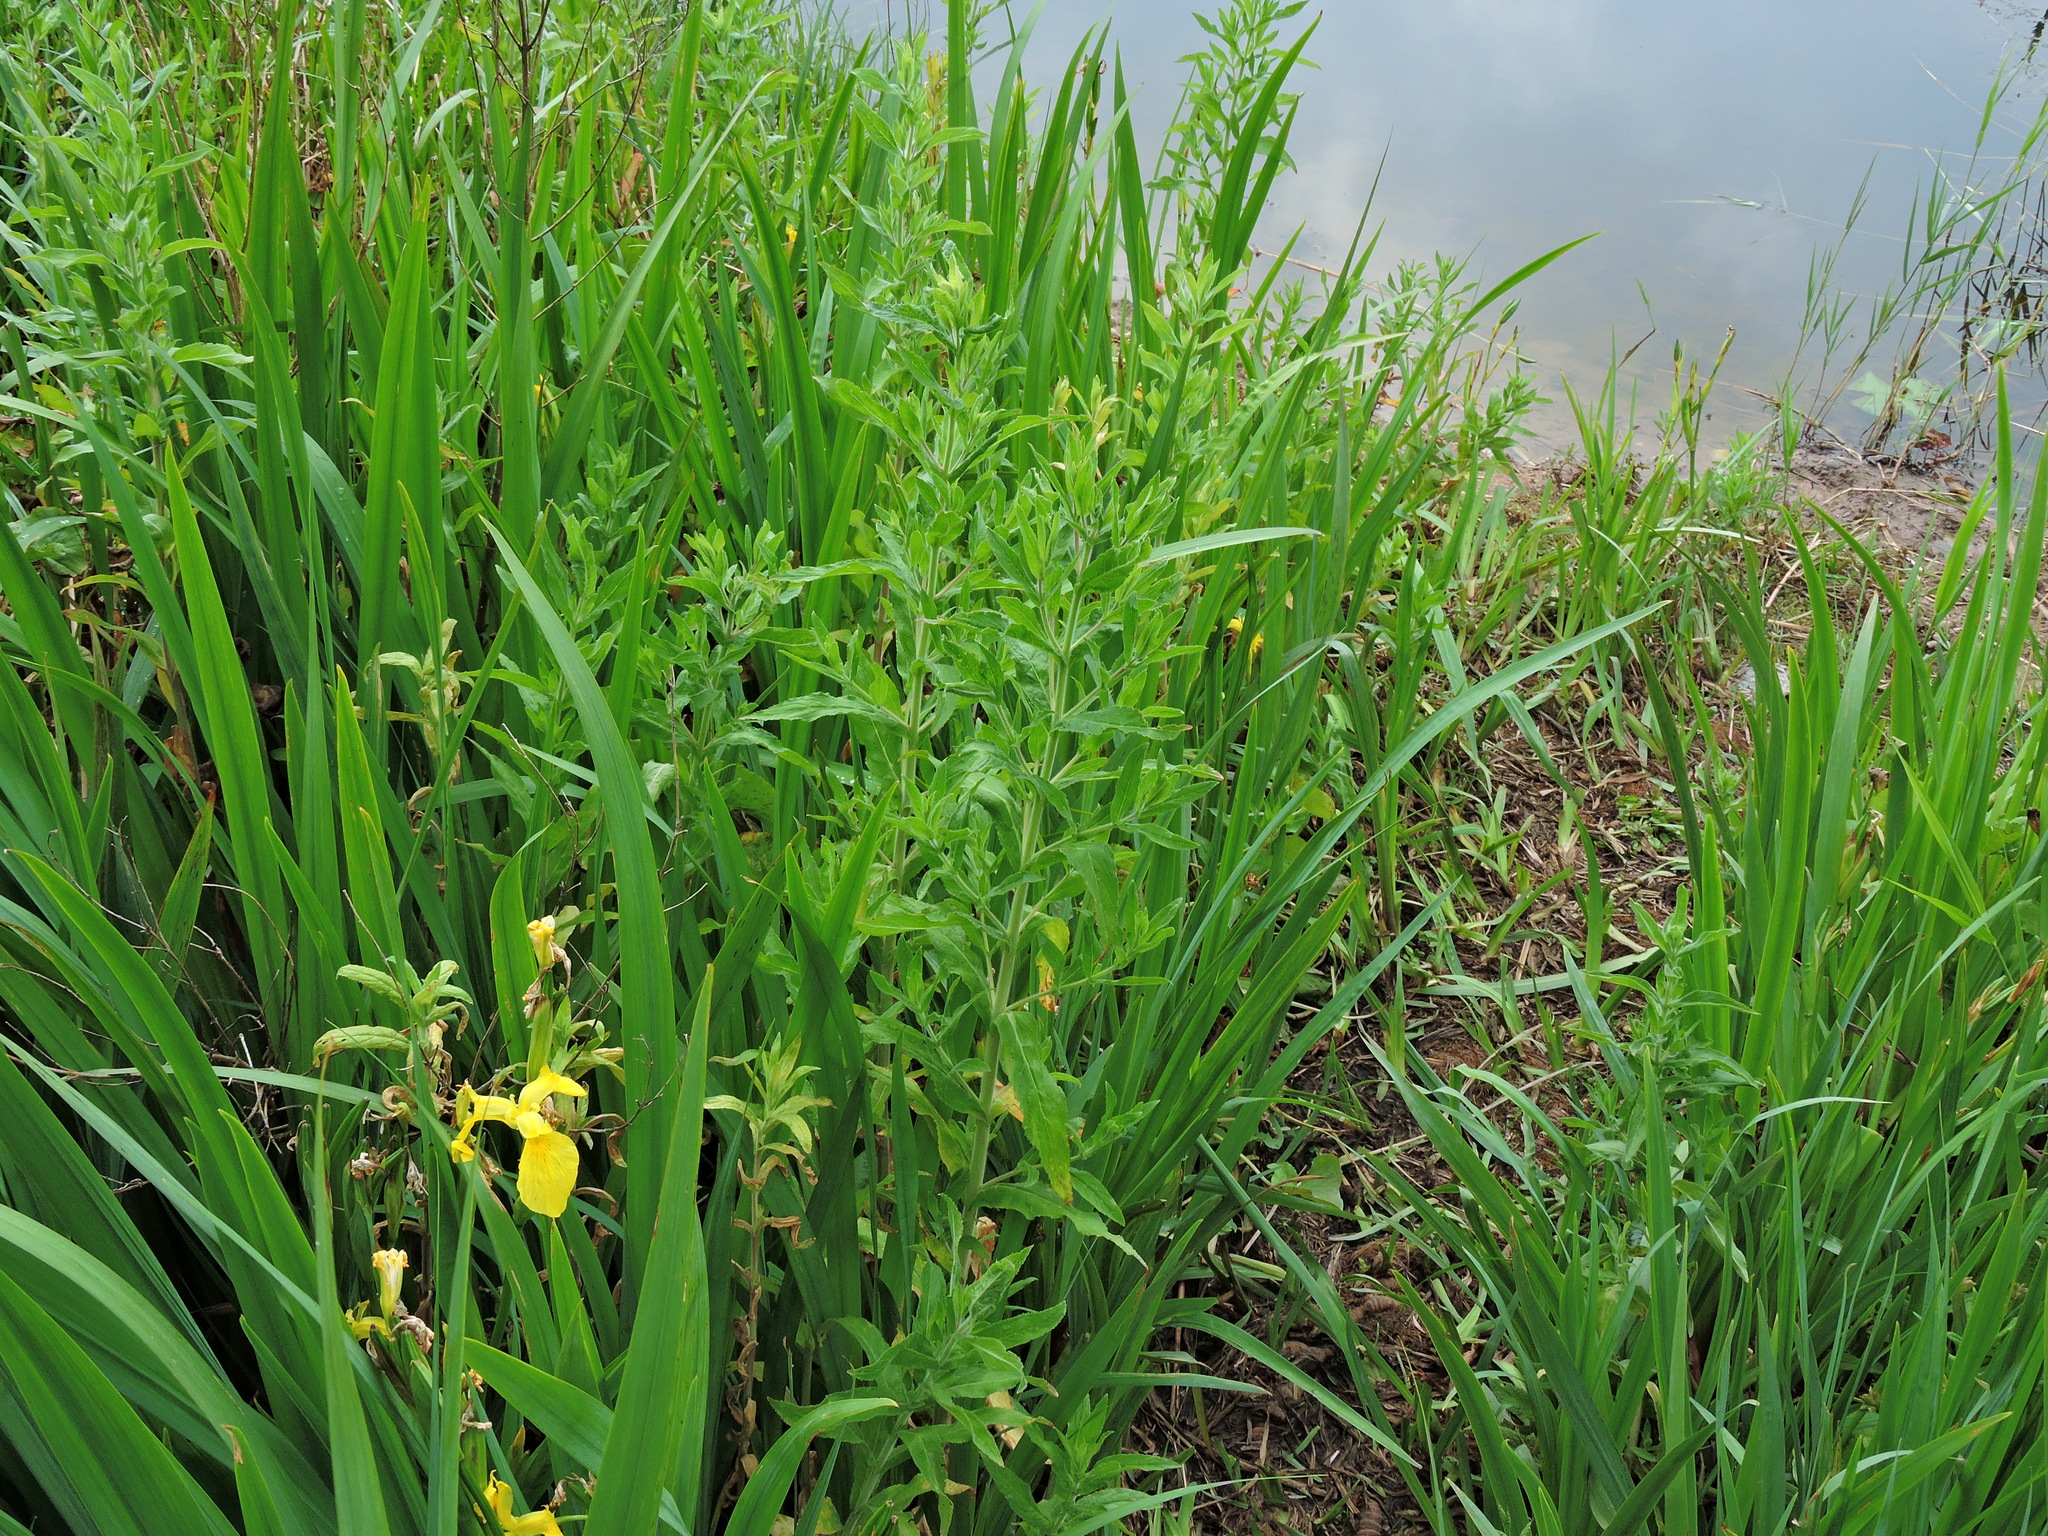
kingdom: Plantae
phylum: Tracheophyta
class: Magnoliopsida
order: Myrtales
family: Onagraceae
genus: Epilobium
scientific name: Epilobium hirsutum
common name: Great willowherb
